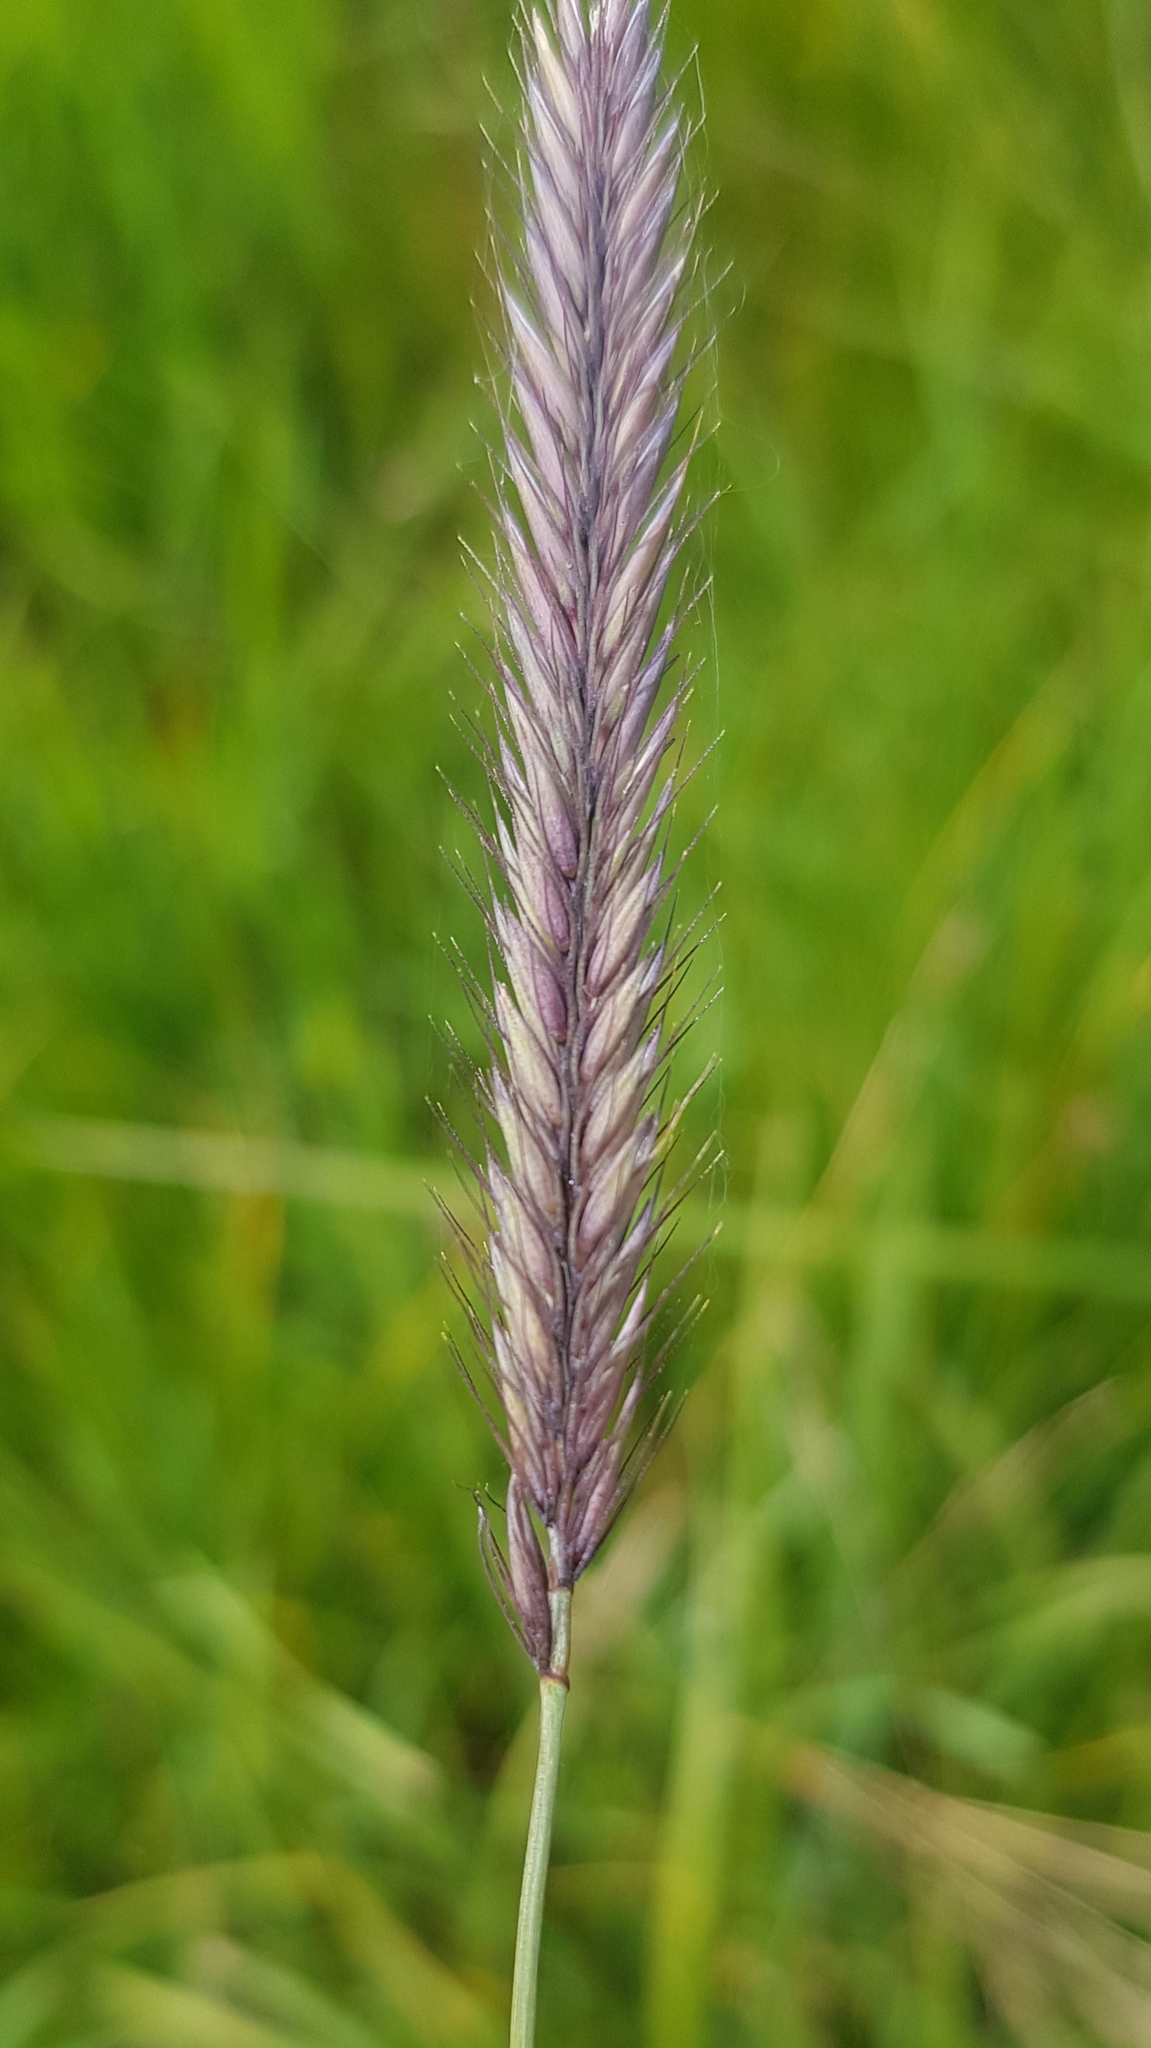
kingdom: Plantae
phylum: Tracheophyta
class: Liliopsida
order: Poales
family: Poaceae
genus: Hordeum
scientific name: Hordeum brevisubulatum
